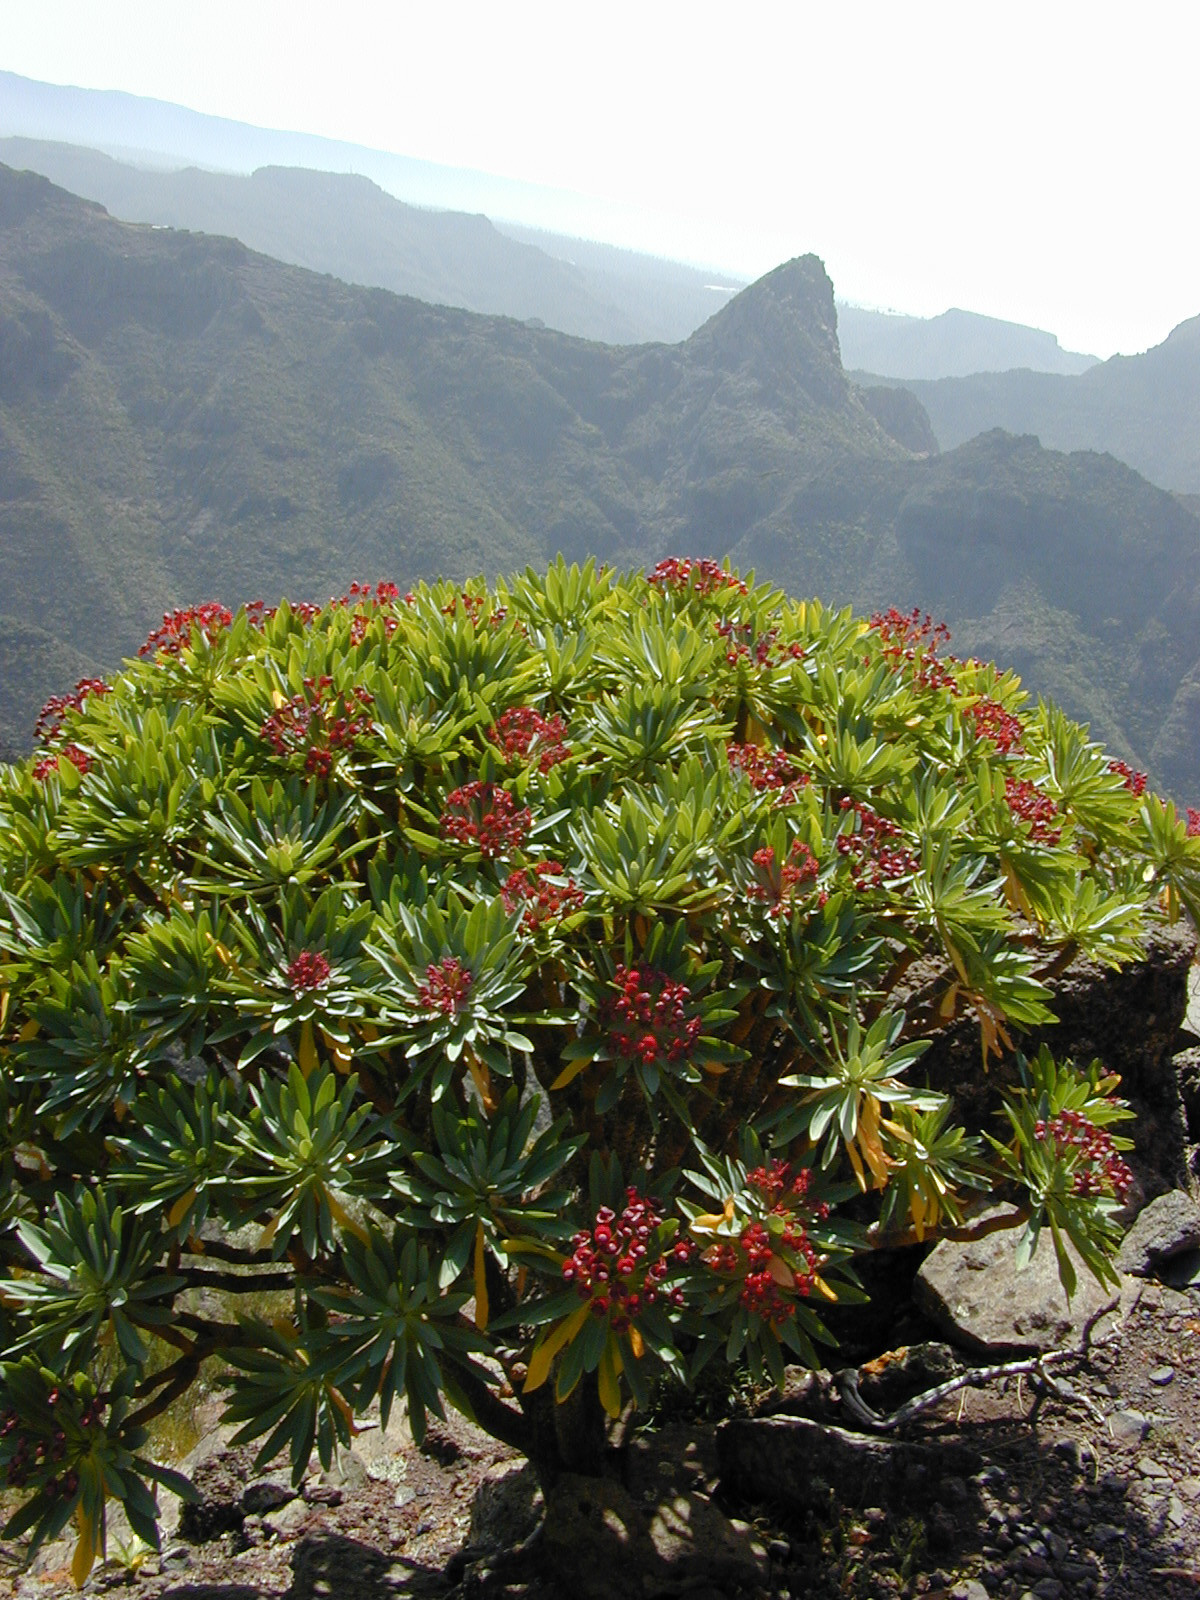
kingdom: Plantae
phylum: Tracheophyta
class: Magnoliopsida
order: Malpighiales
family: Euphorbiaceae
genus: Euphorbia
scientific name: Euphorbia atropurpurea
